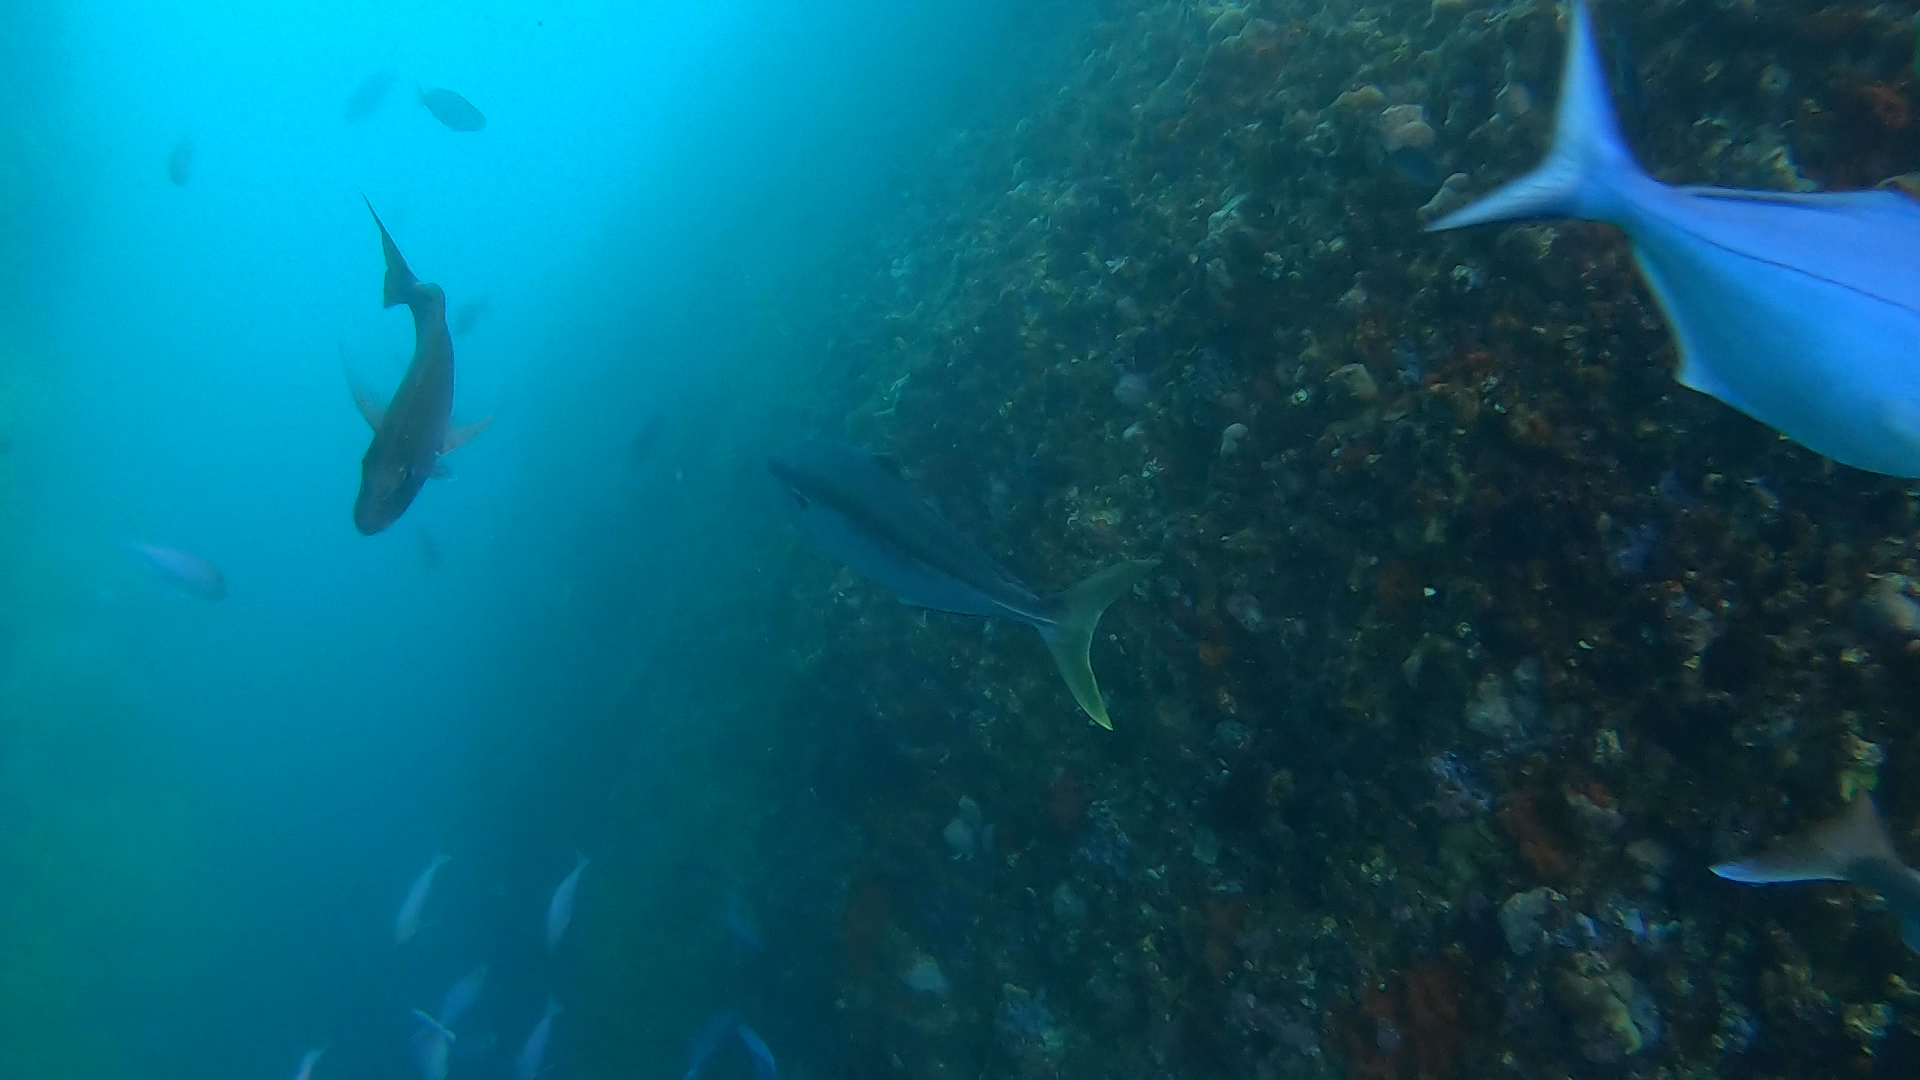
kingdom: Animalia
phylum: Chordata
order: Perciformes
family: Carangidae
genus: Seriola
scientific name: Seriola lalandi
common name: Yellowtail kingfish
